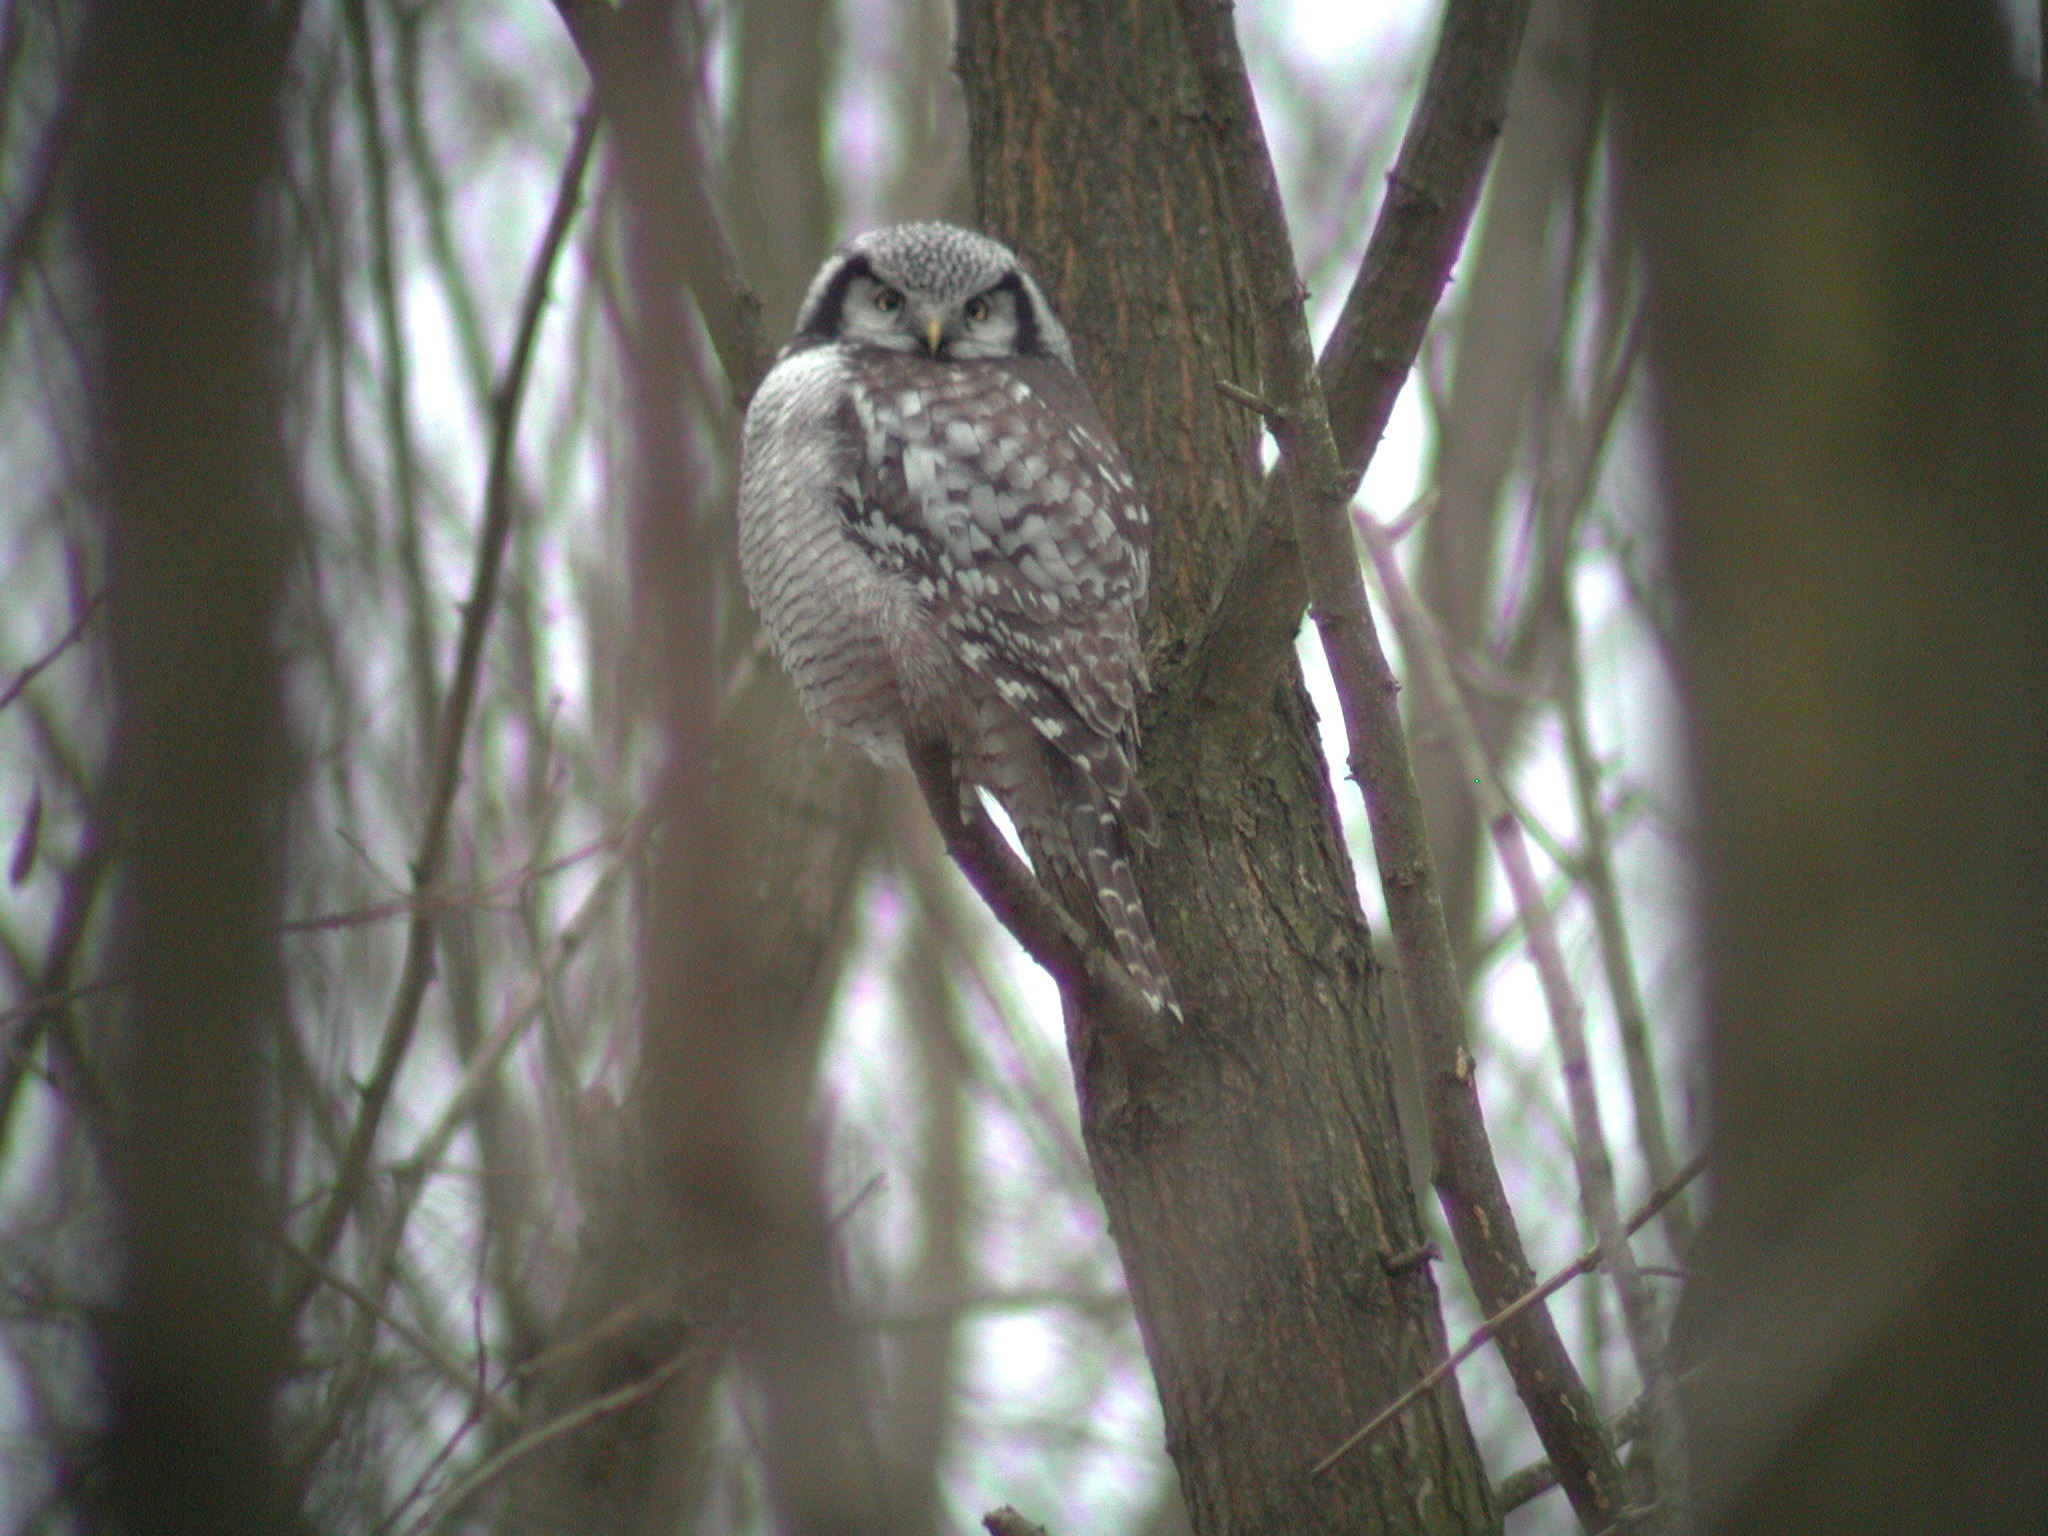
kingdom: Animalia
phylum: Chordata
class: Aves
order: Strigiformes
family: Strigidae
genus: Surnia
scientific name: Surnia ulula
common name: Northern hawk-owl
